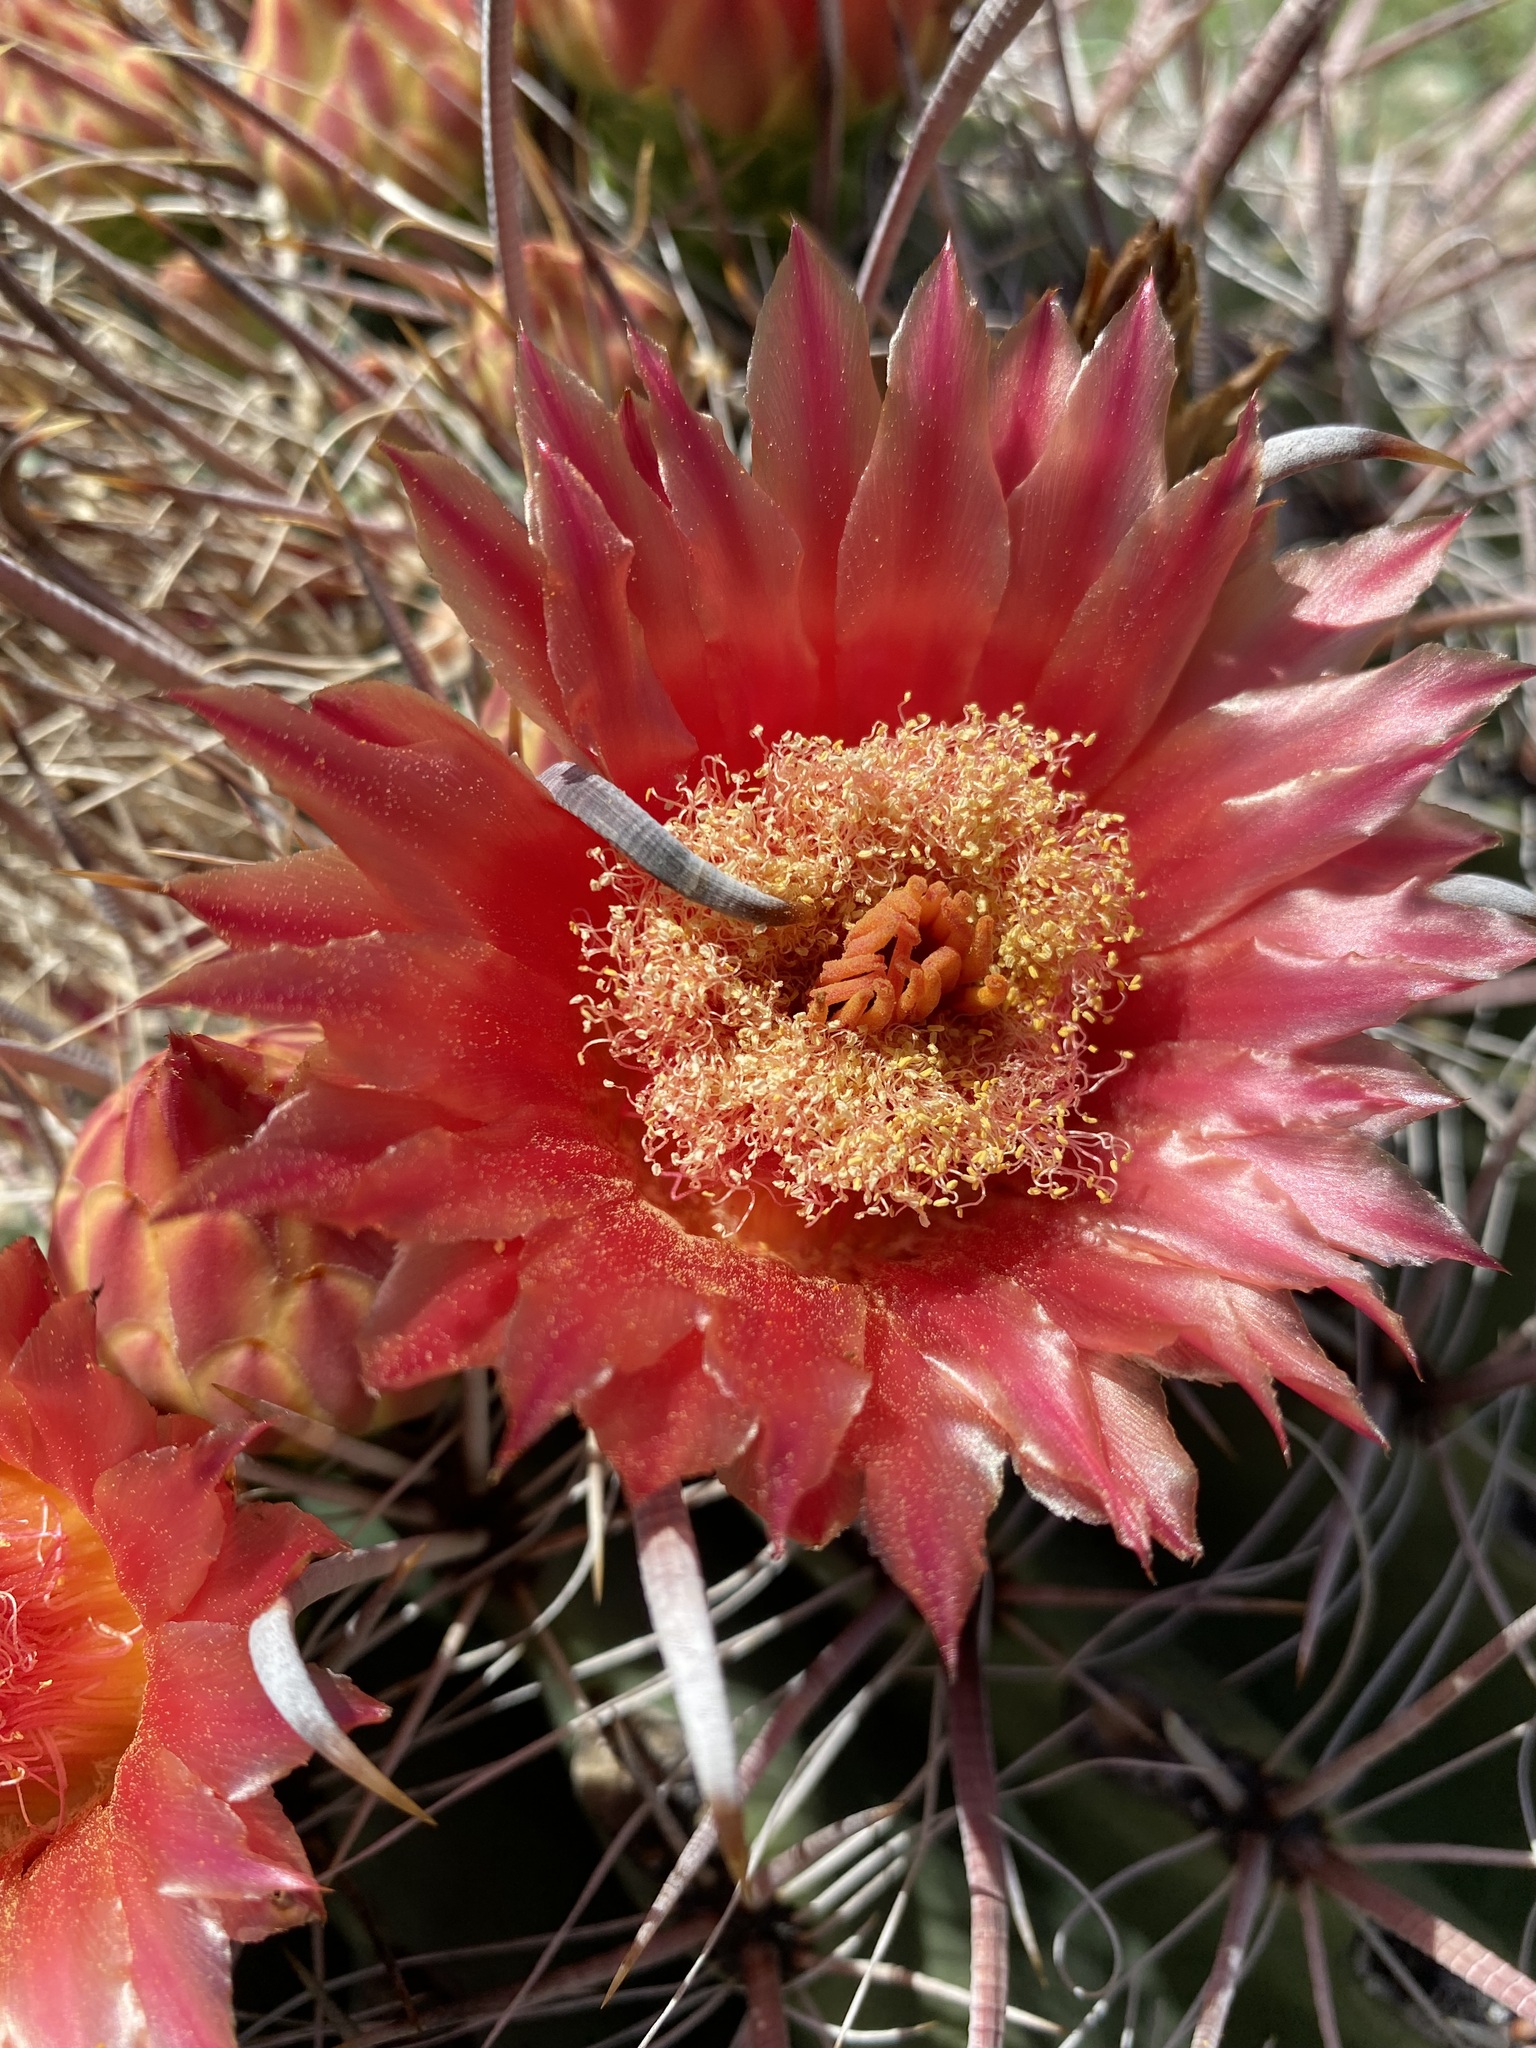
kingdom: Plantae
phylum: Tracheophyta
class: Magnoliopsida
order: Caryophyllales
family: Cactaceae
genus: Ferocactus
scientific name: Ferocactus wislizeni
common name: Candy barrel cactus
